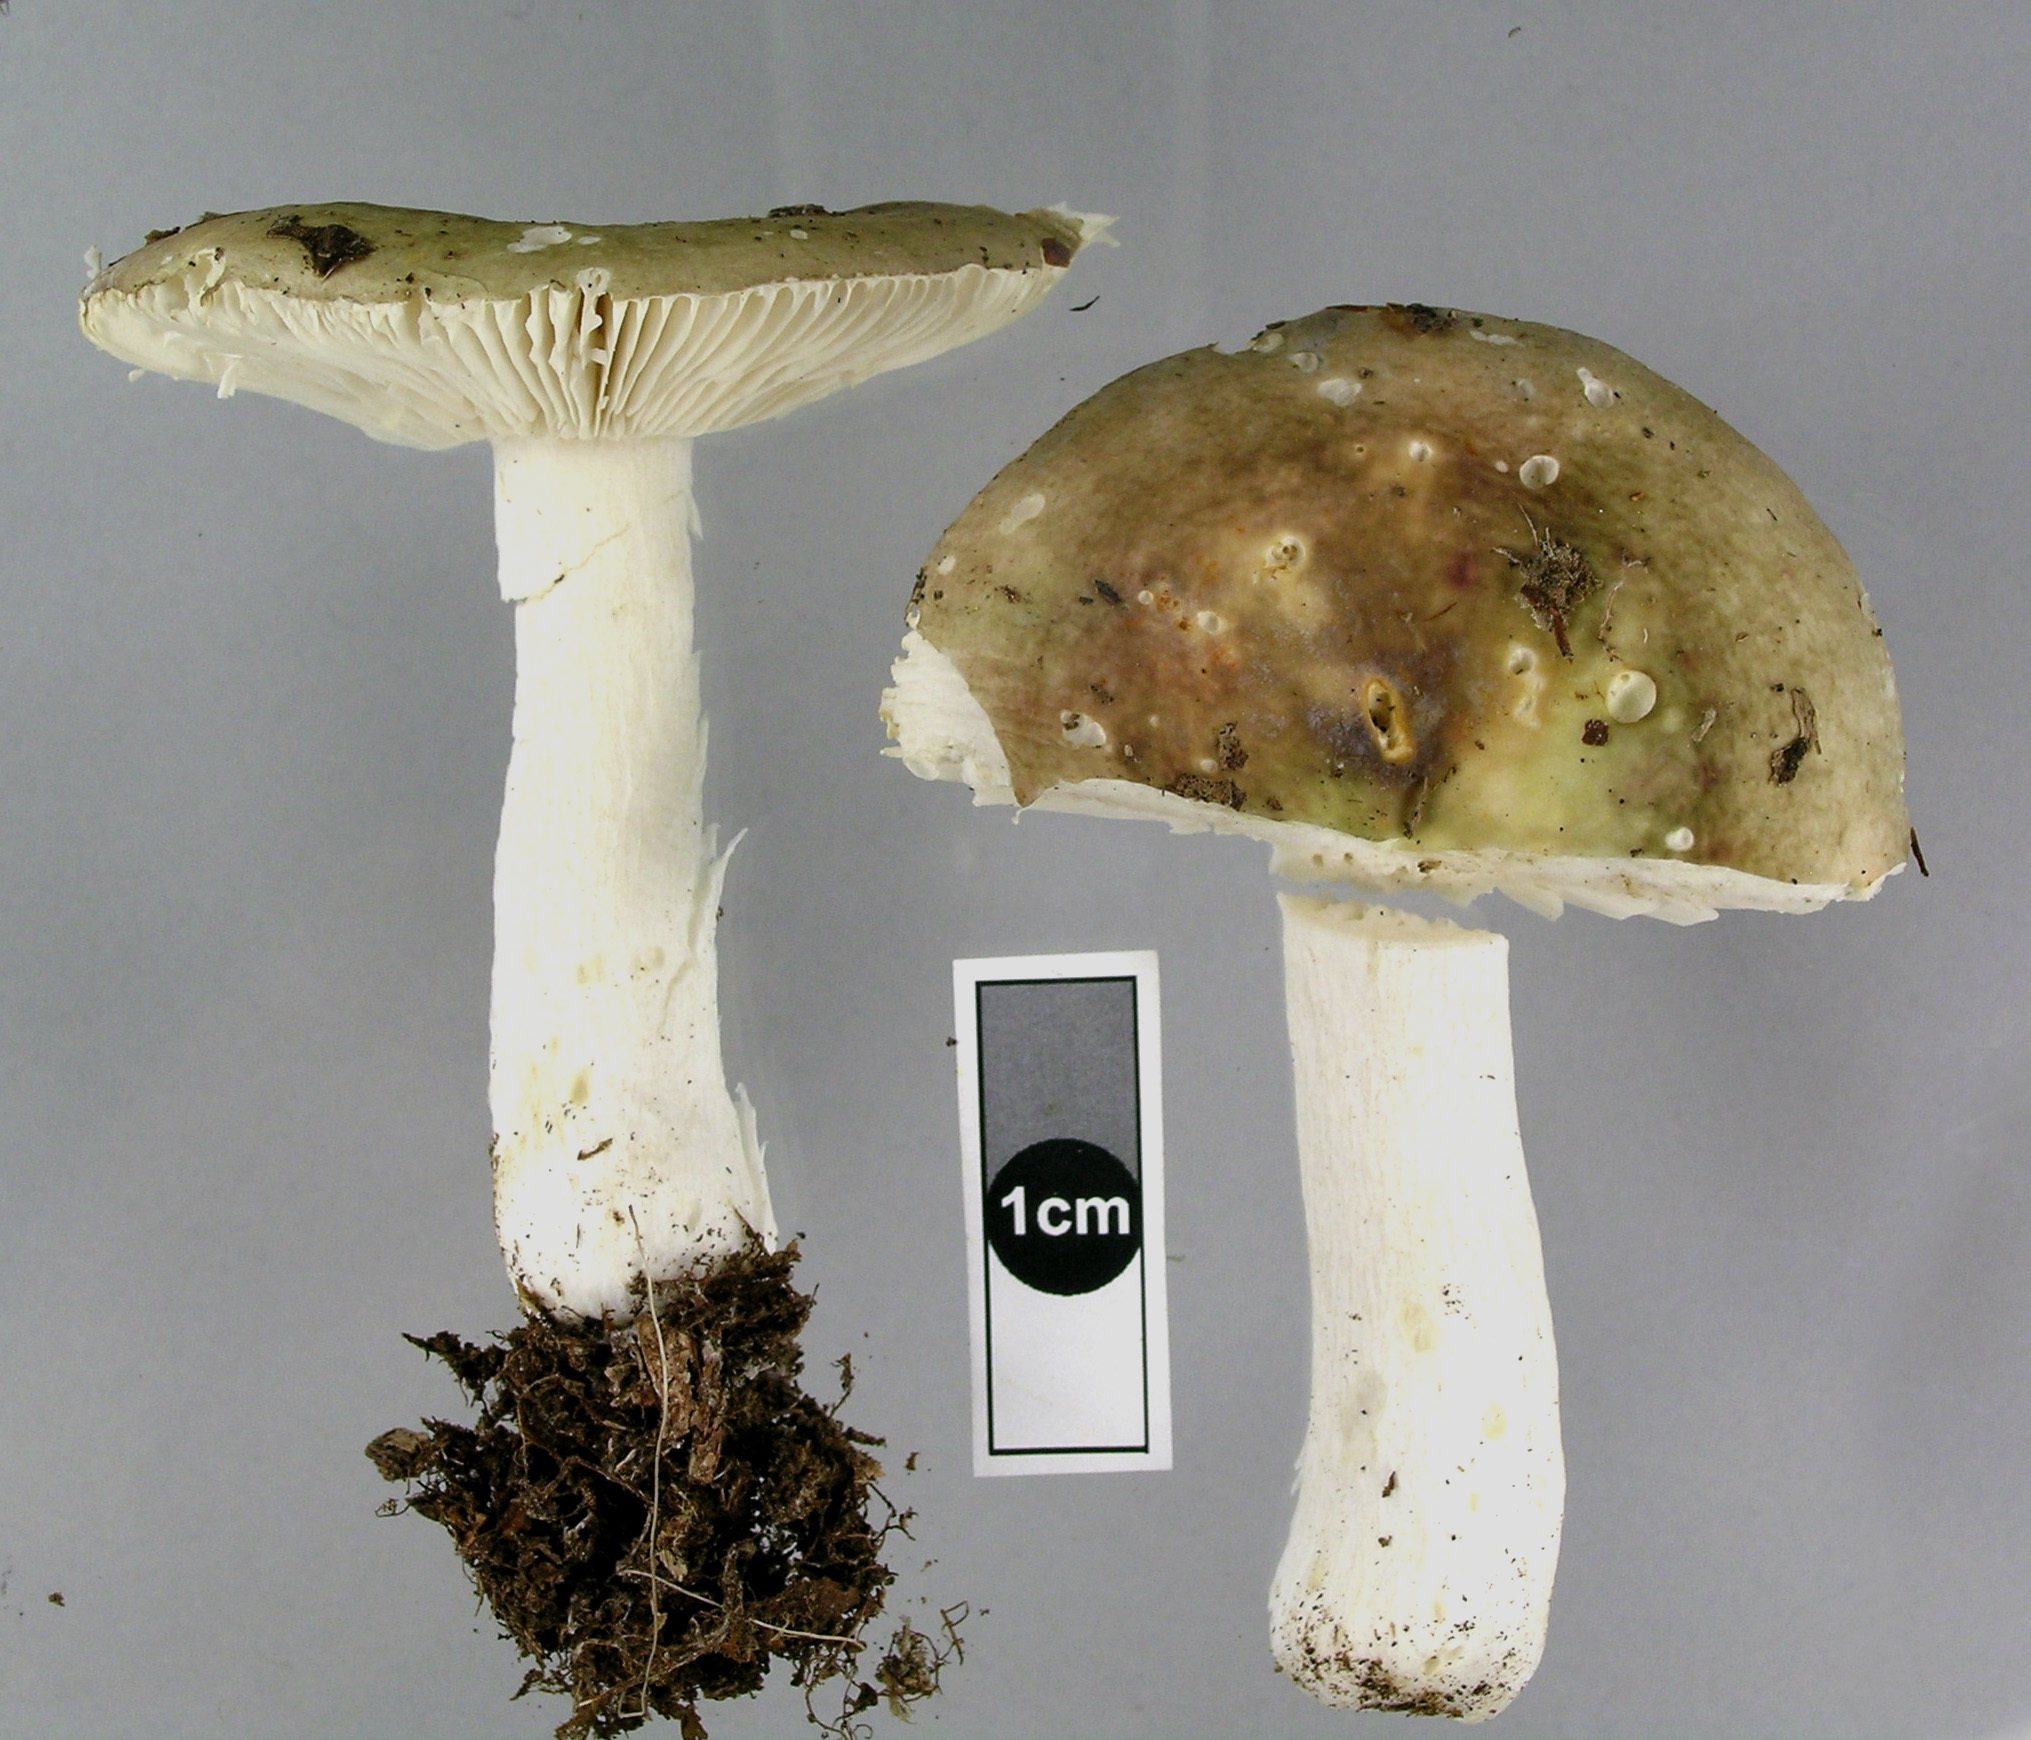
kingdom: Fungi
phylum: Basidiomycota
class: Agaricomycetes
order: Russulales
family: Russulaceae
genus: Russula
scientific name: Russula umerensis
